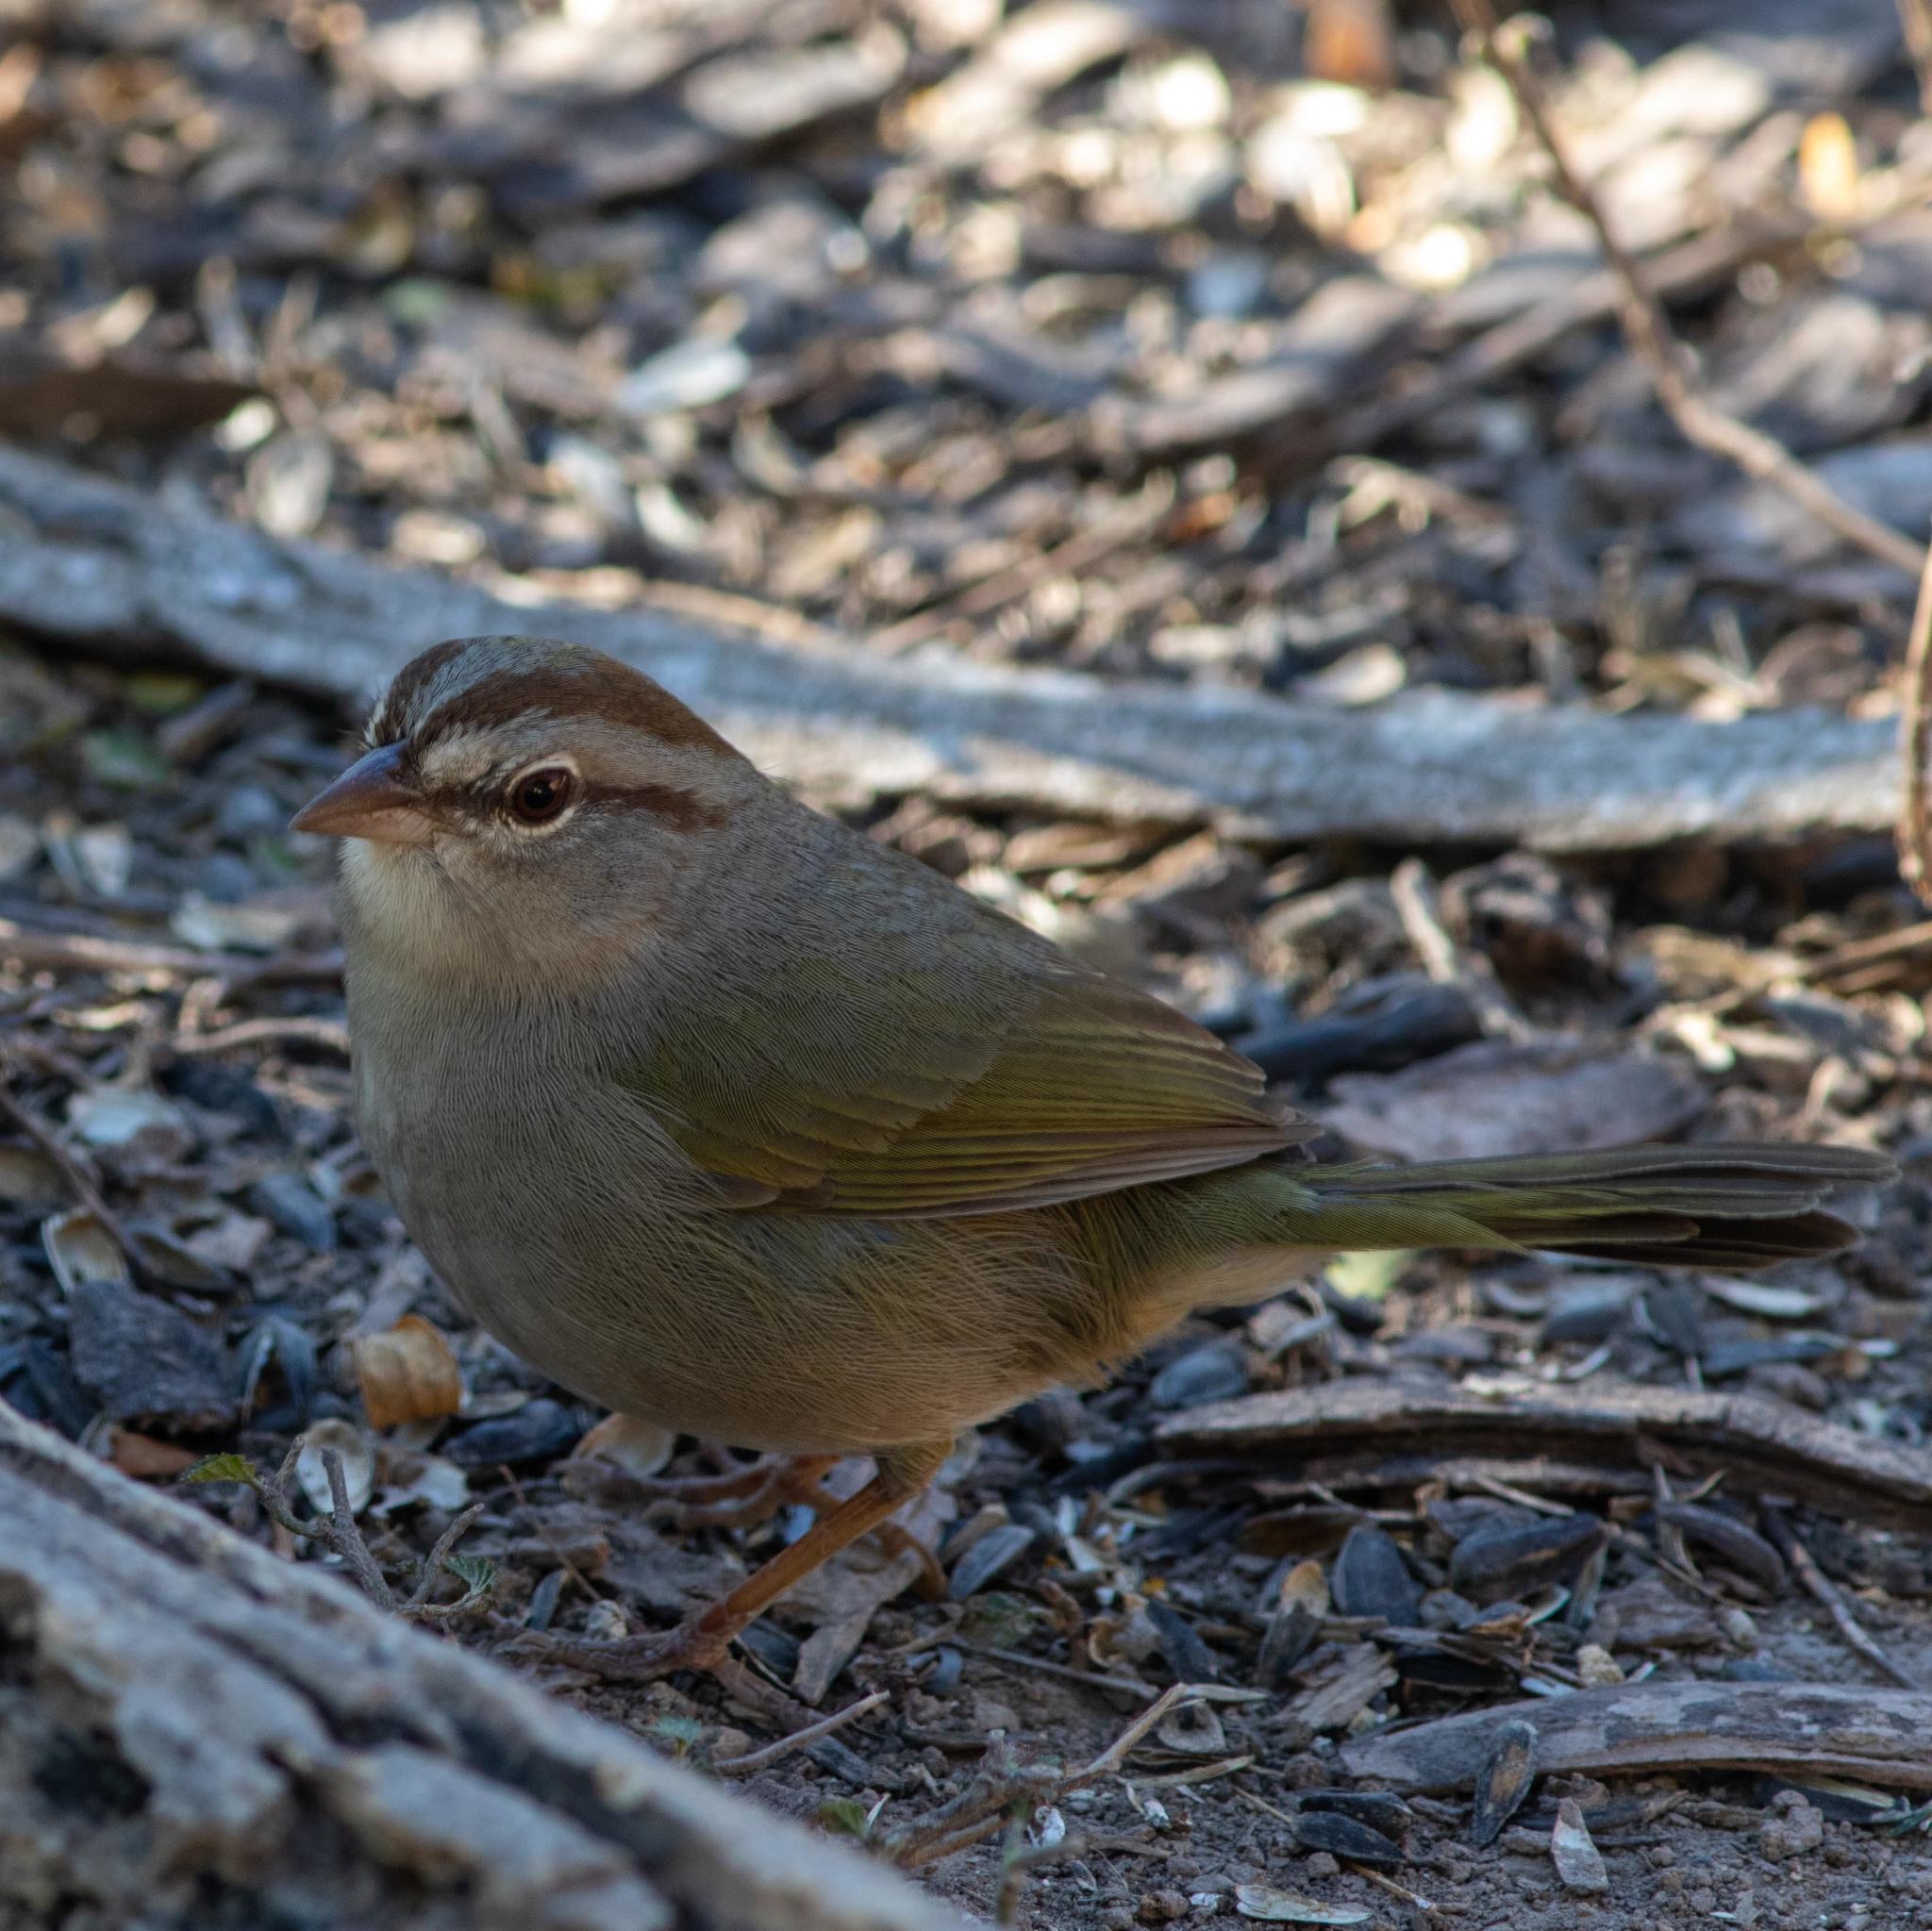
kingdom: Animalia
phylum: Chordata
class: Aves
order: Passeriformes
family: Passerellidae
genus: Arremonops
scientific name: Arremonops rufivirgatus
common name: Olive sparrow
